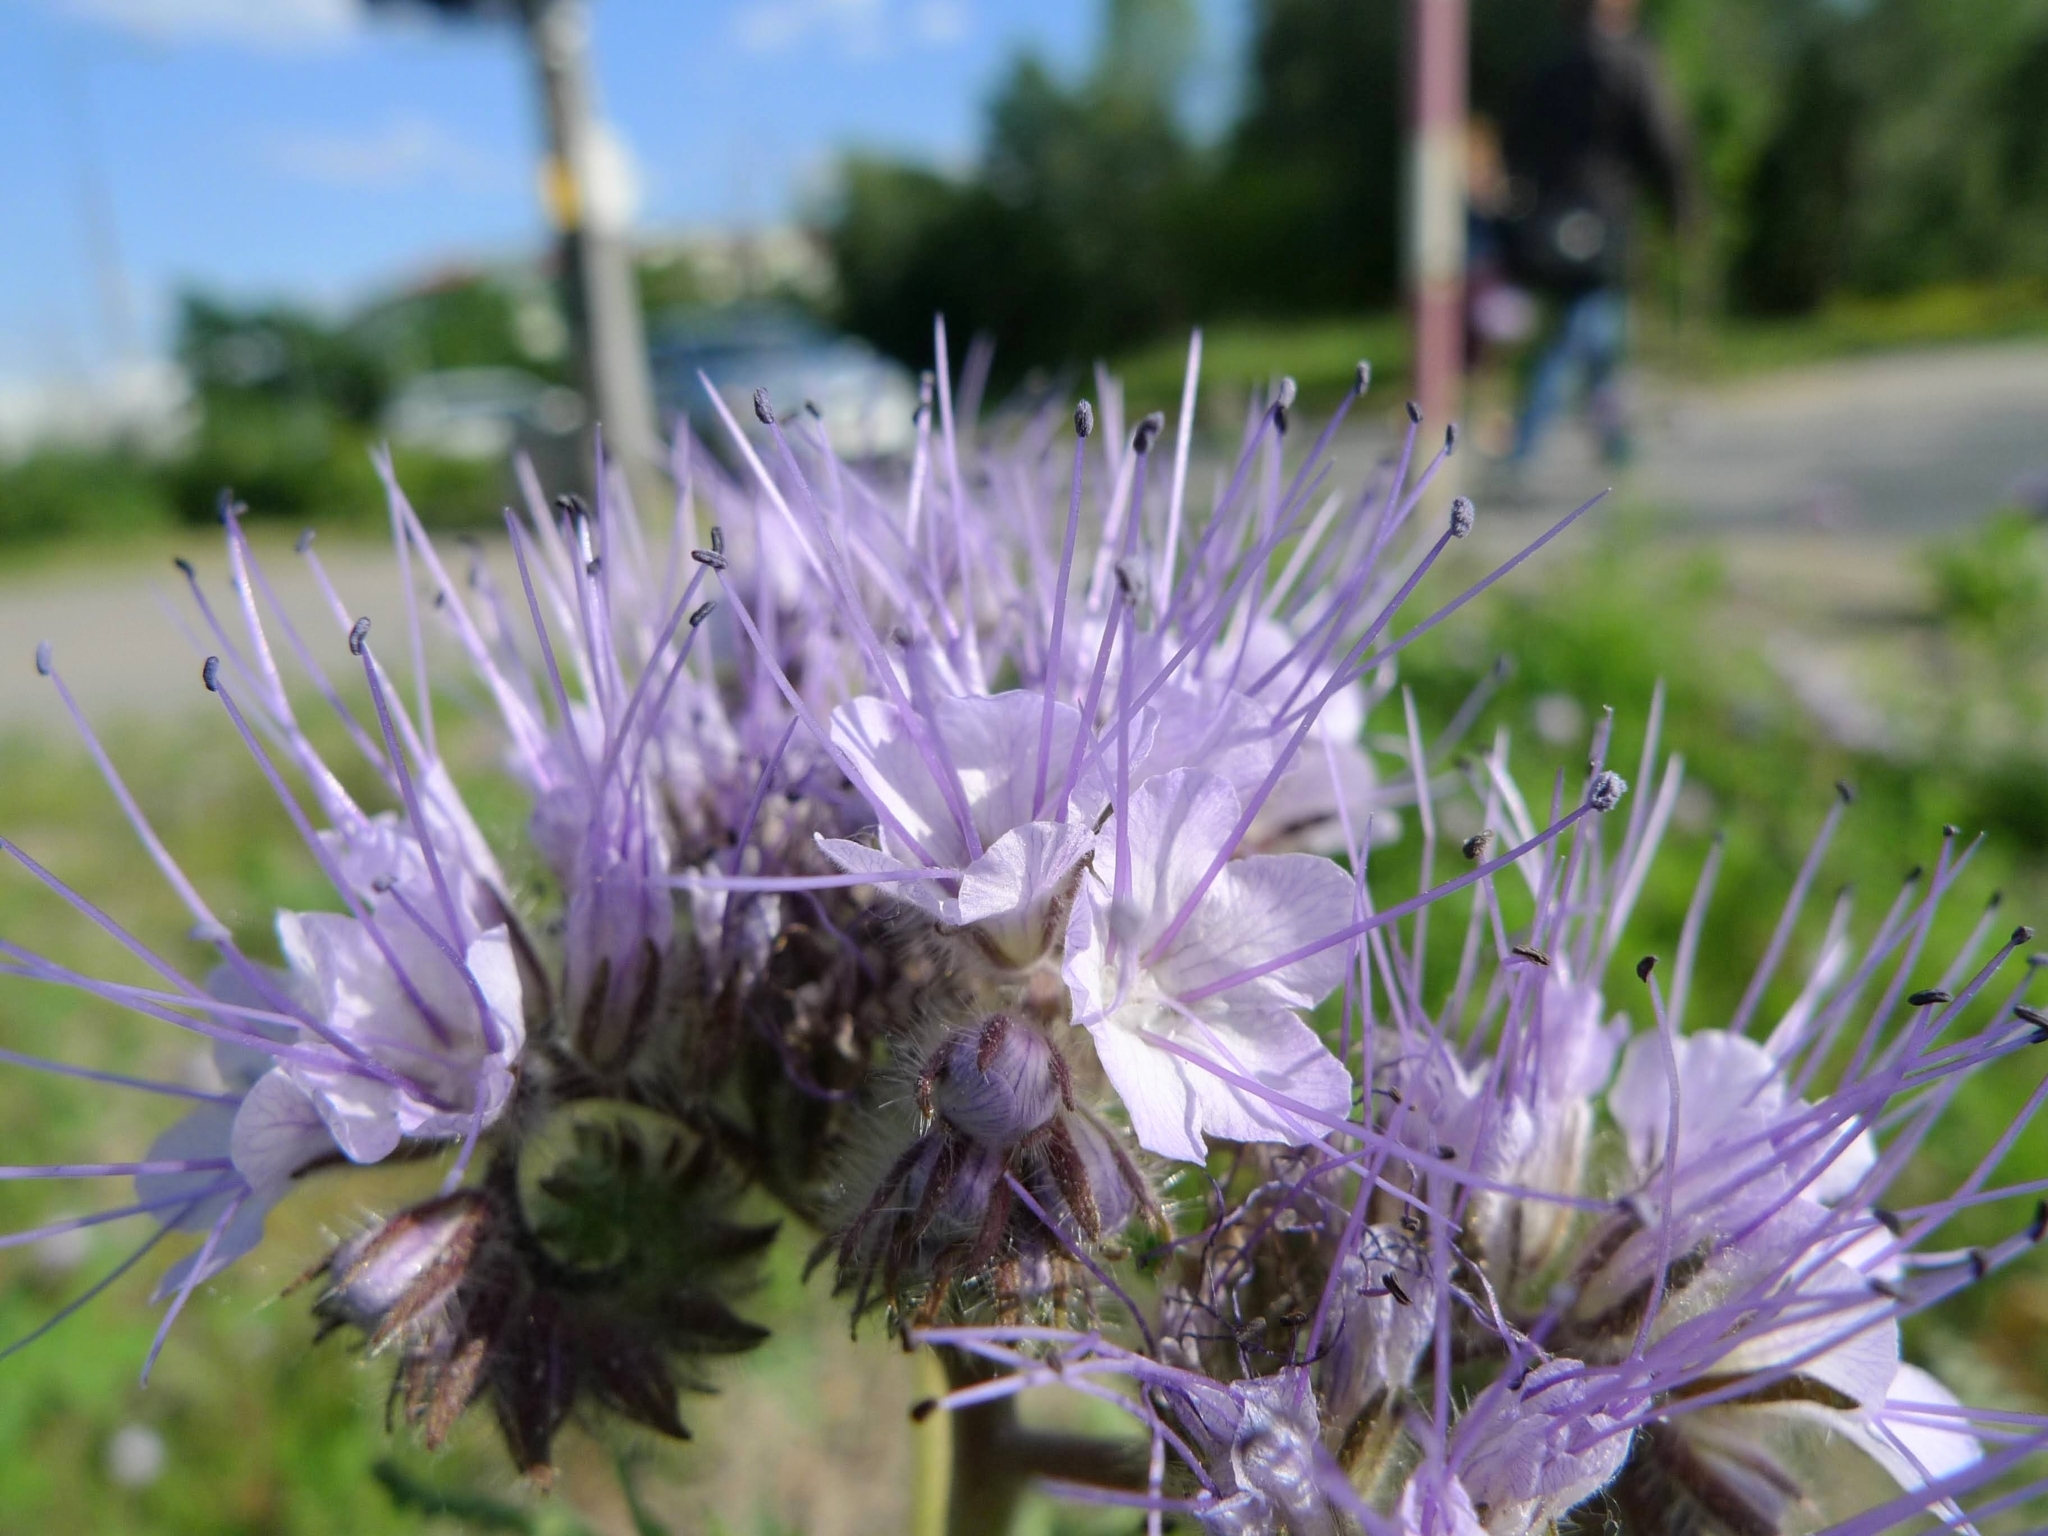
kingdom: Plantae
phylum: Tracheophyta
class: Magnoliopsida
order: Boraginales
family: Hydrophyllaceae
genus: Phacelia
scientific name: Phacelia tanacetifolia
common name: Phacelia
